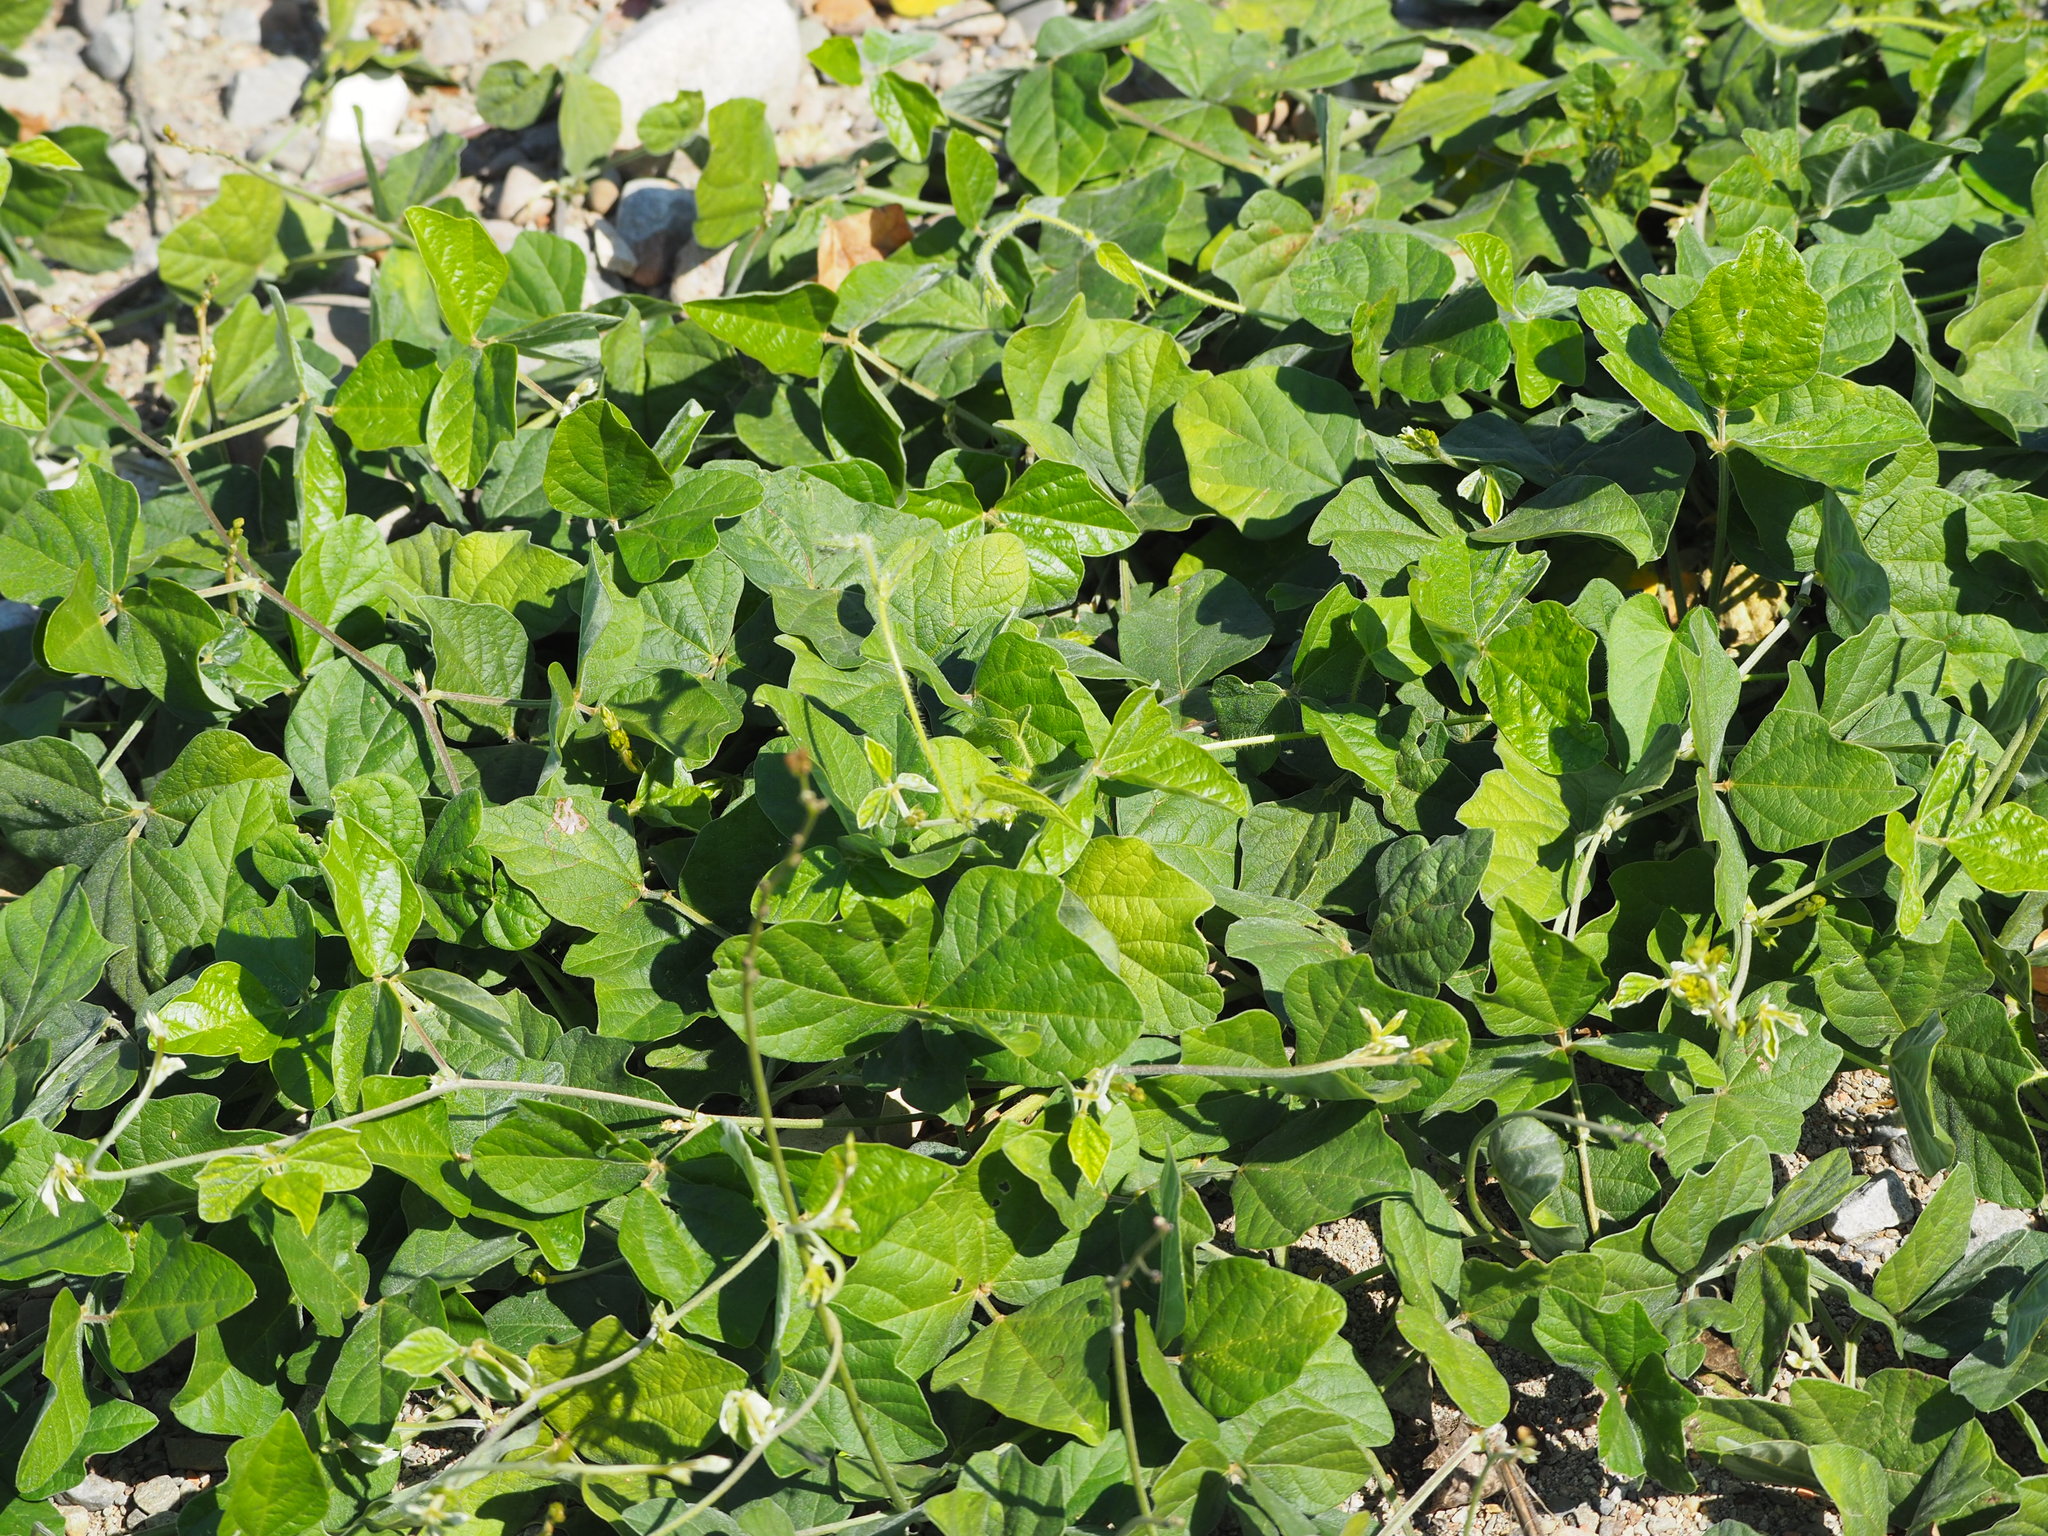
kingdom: Plantae
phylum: Tracheophyta
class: Magnoliopsida
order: Fabales
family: Fabaceae
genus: Macroptilium
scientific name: Macroptilium atropurpureum
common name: Purple bushbean
